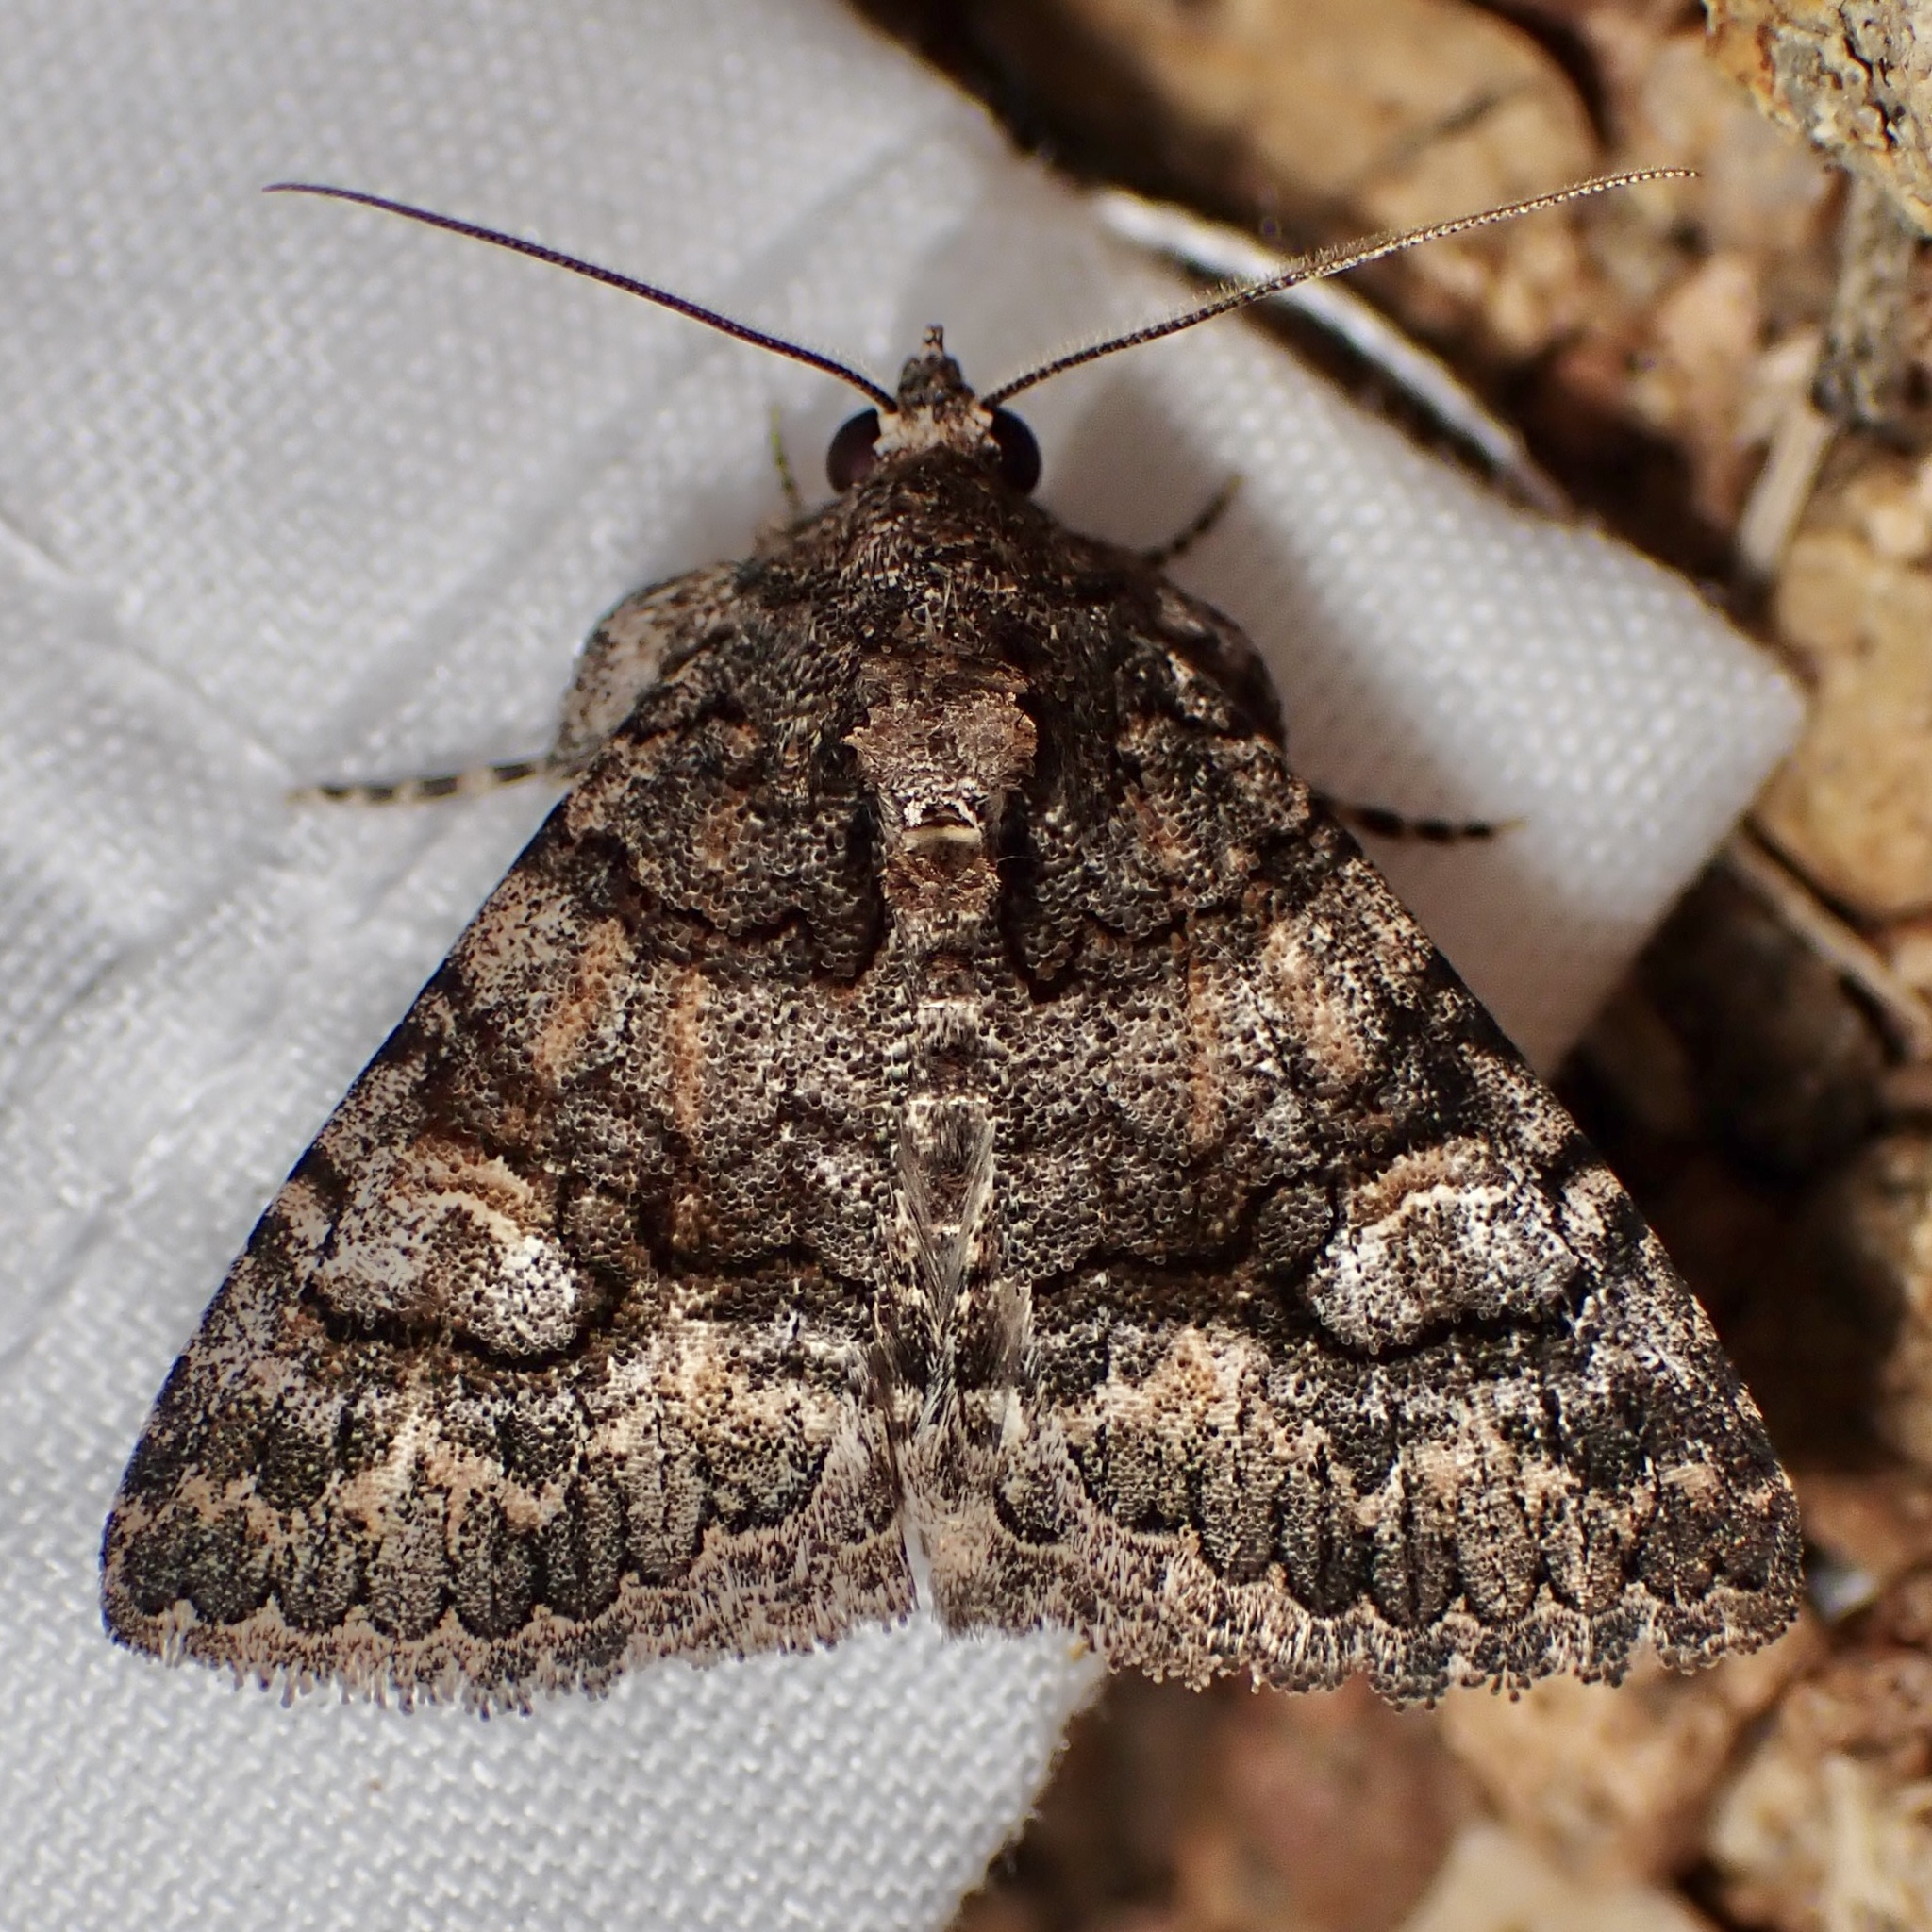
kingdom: Animalia
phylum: Arthropoda
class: Insecta
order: Lepidoptera
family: Erebidae
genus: Elousa
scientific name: Elousa mima
